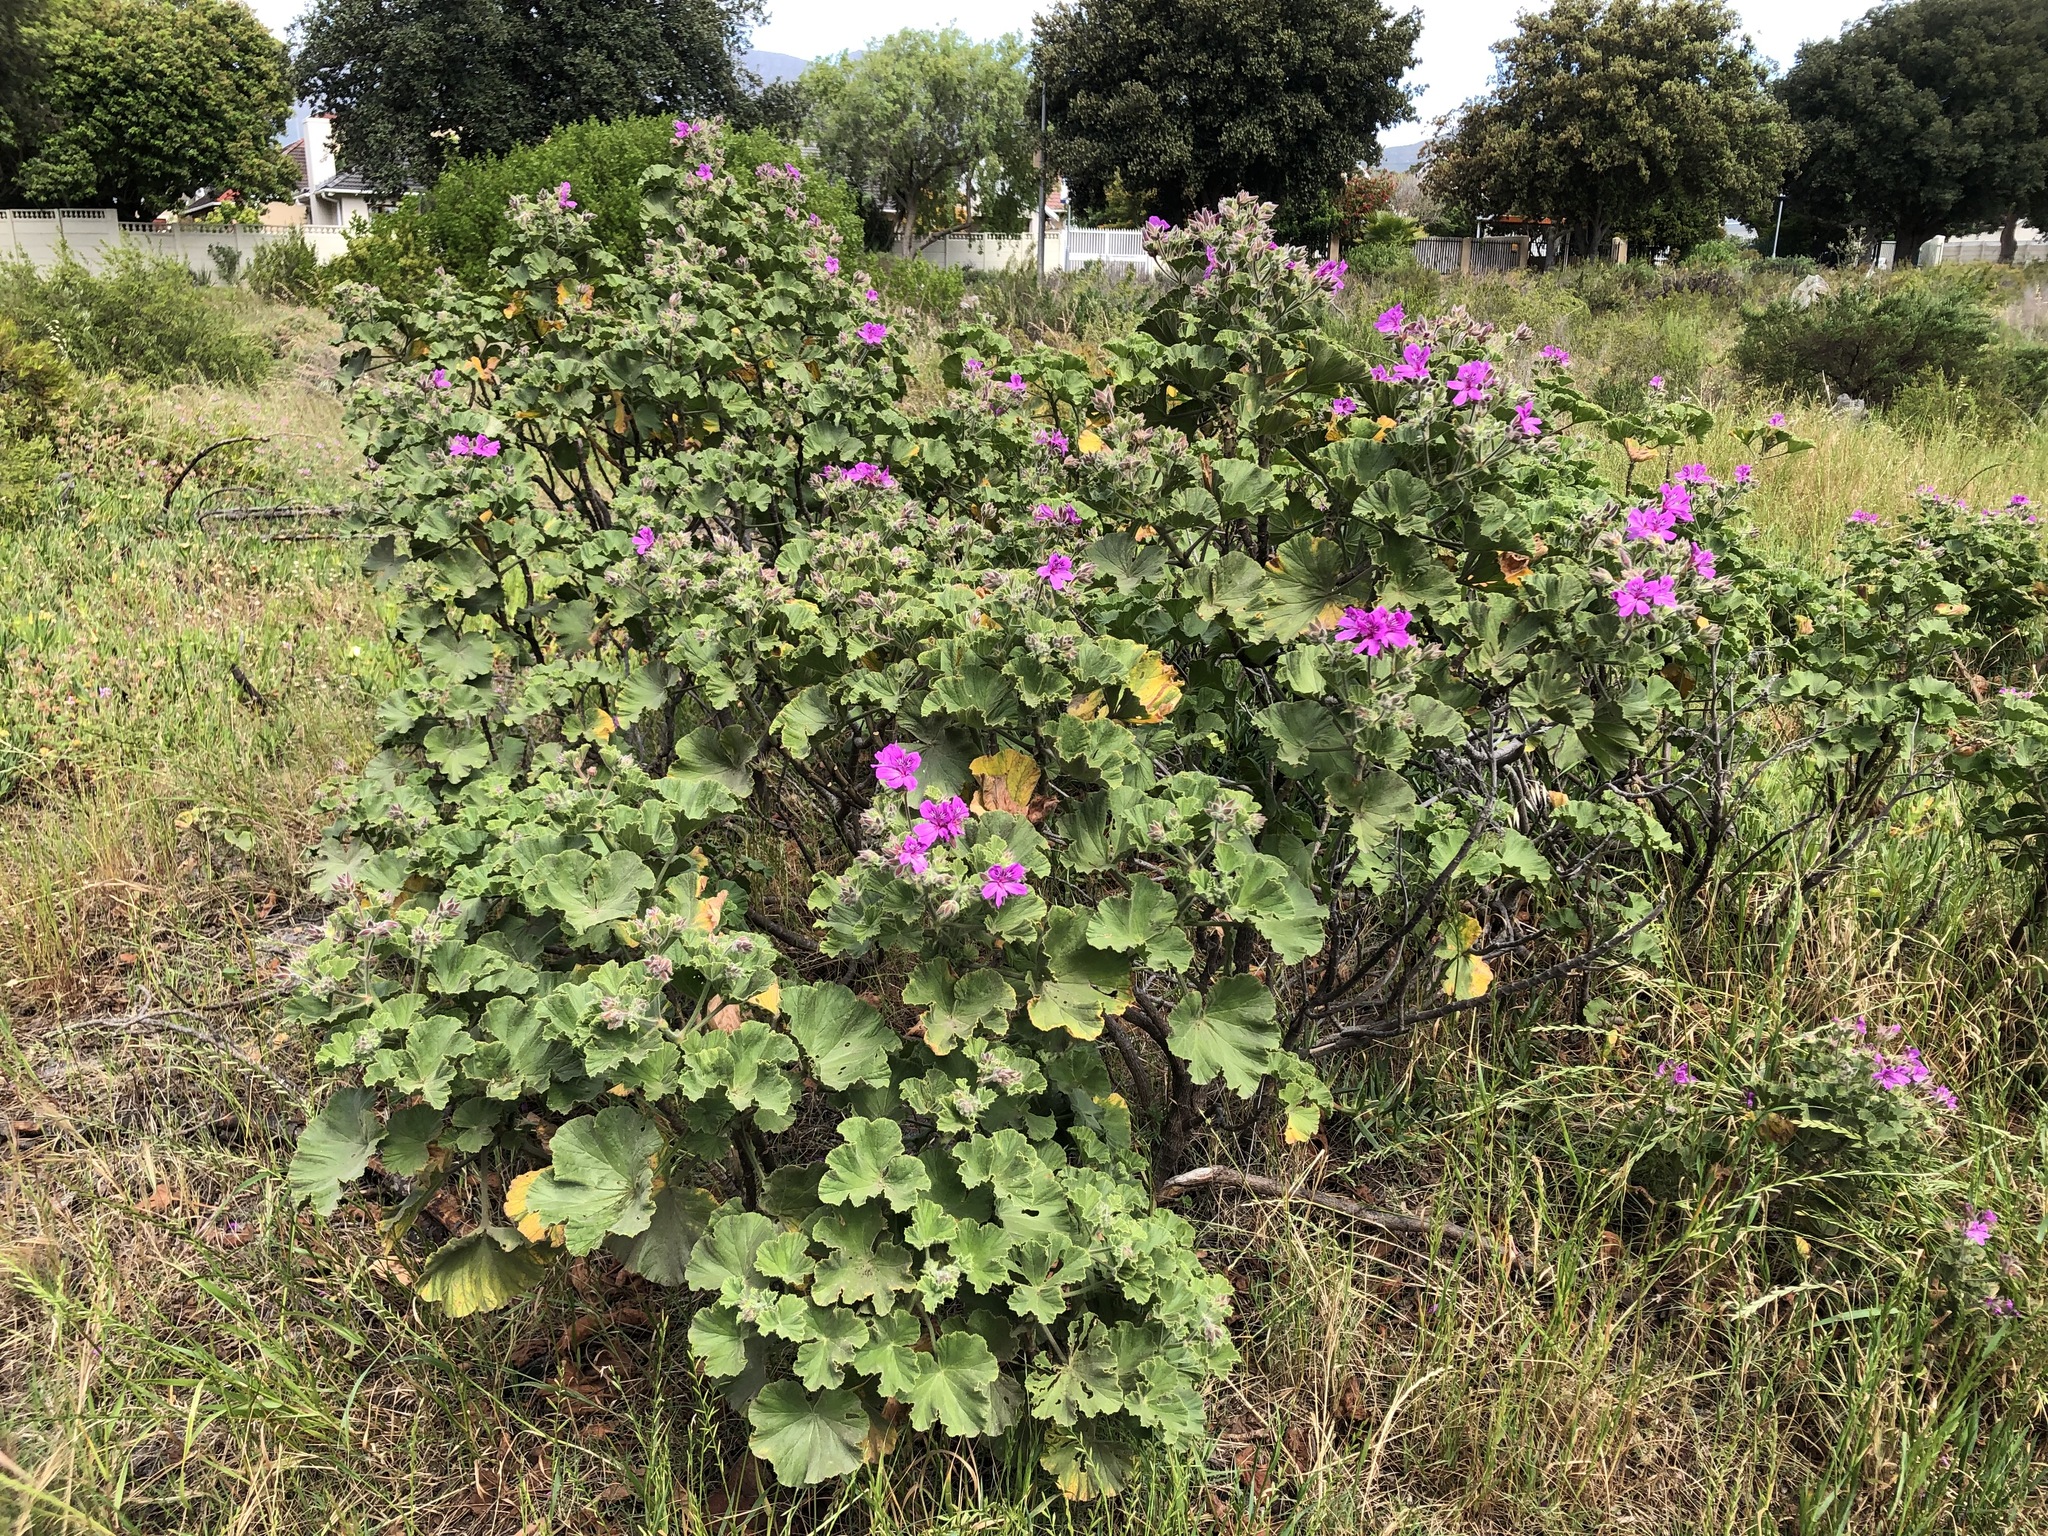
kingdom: Plantae
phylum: Tracheophyta
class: Magnoliopsida
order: Geraniales
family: Geraniaceae
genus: Pelargonium
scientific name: Pelargonium cucullatum
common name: Tree pelargonium
